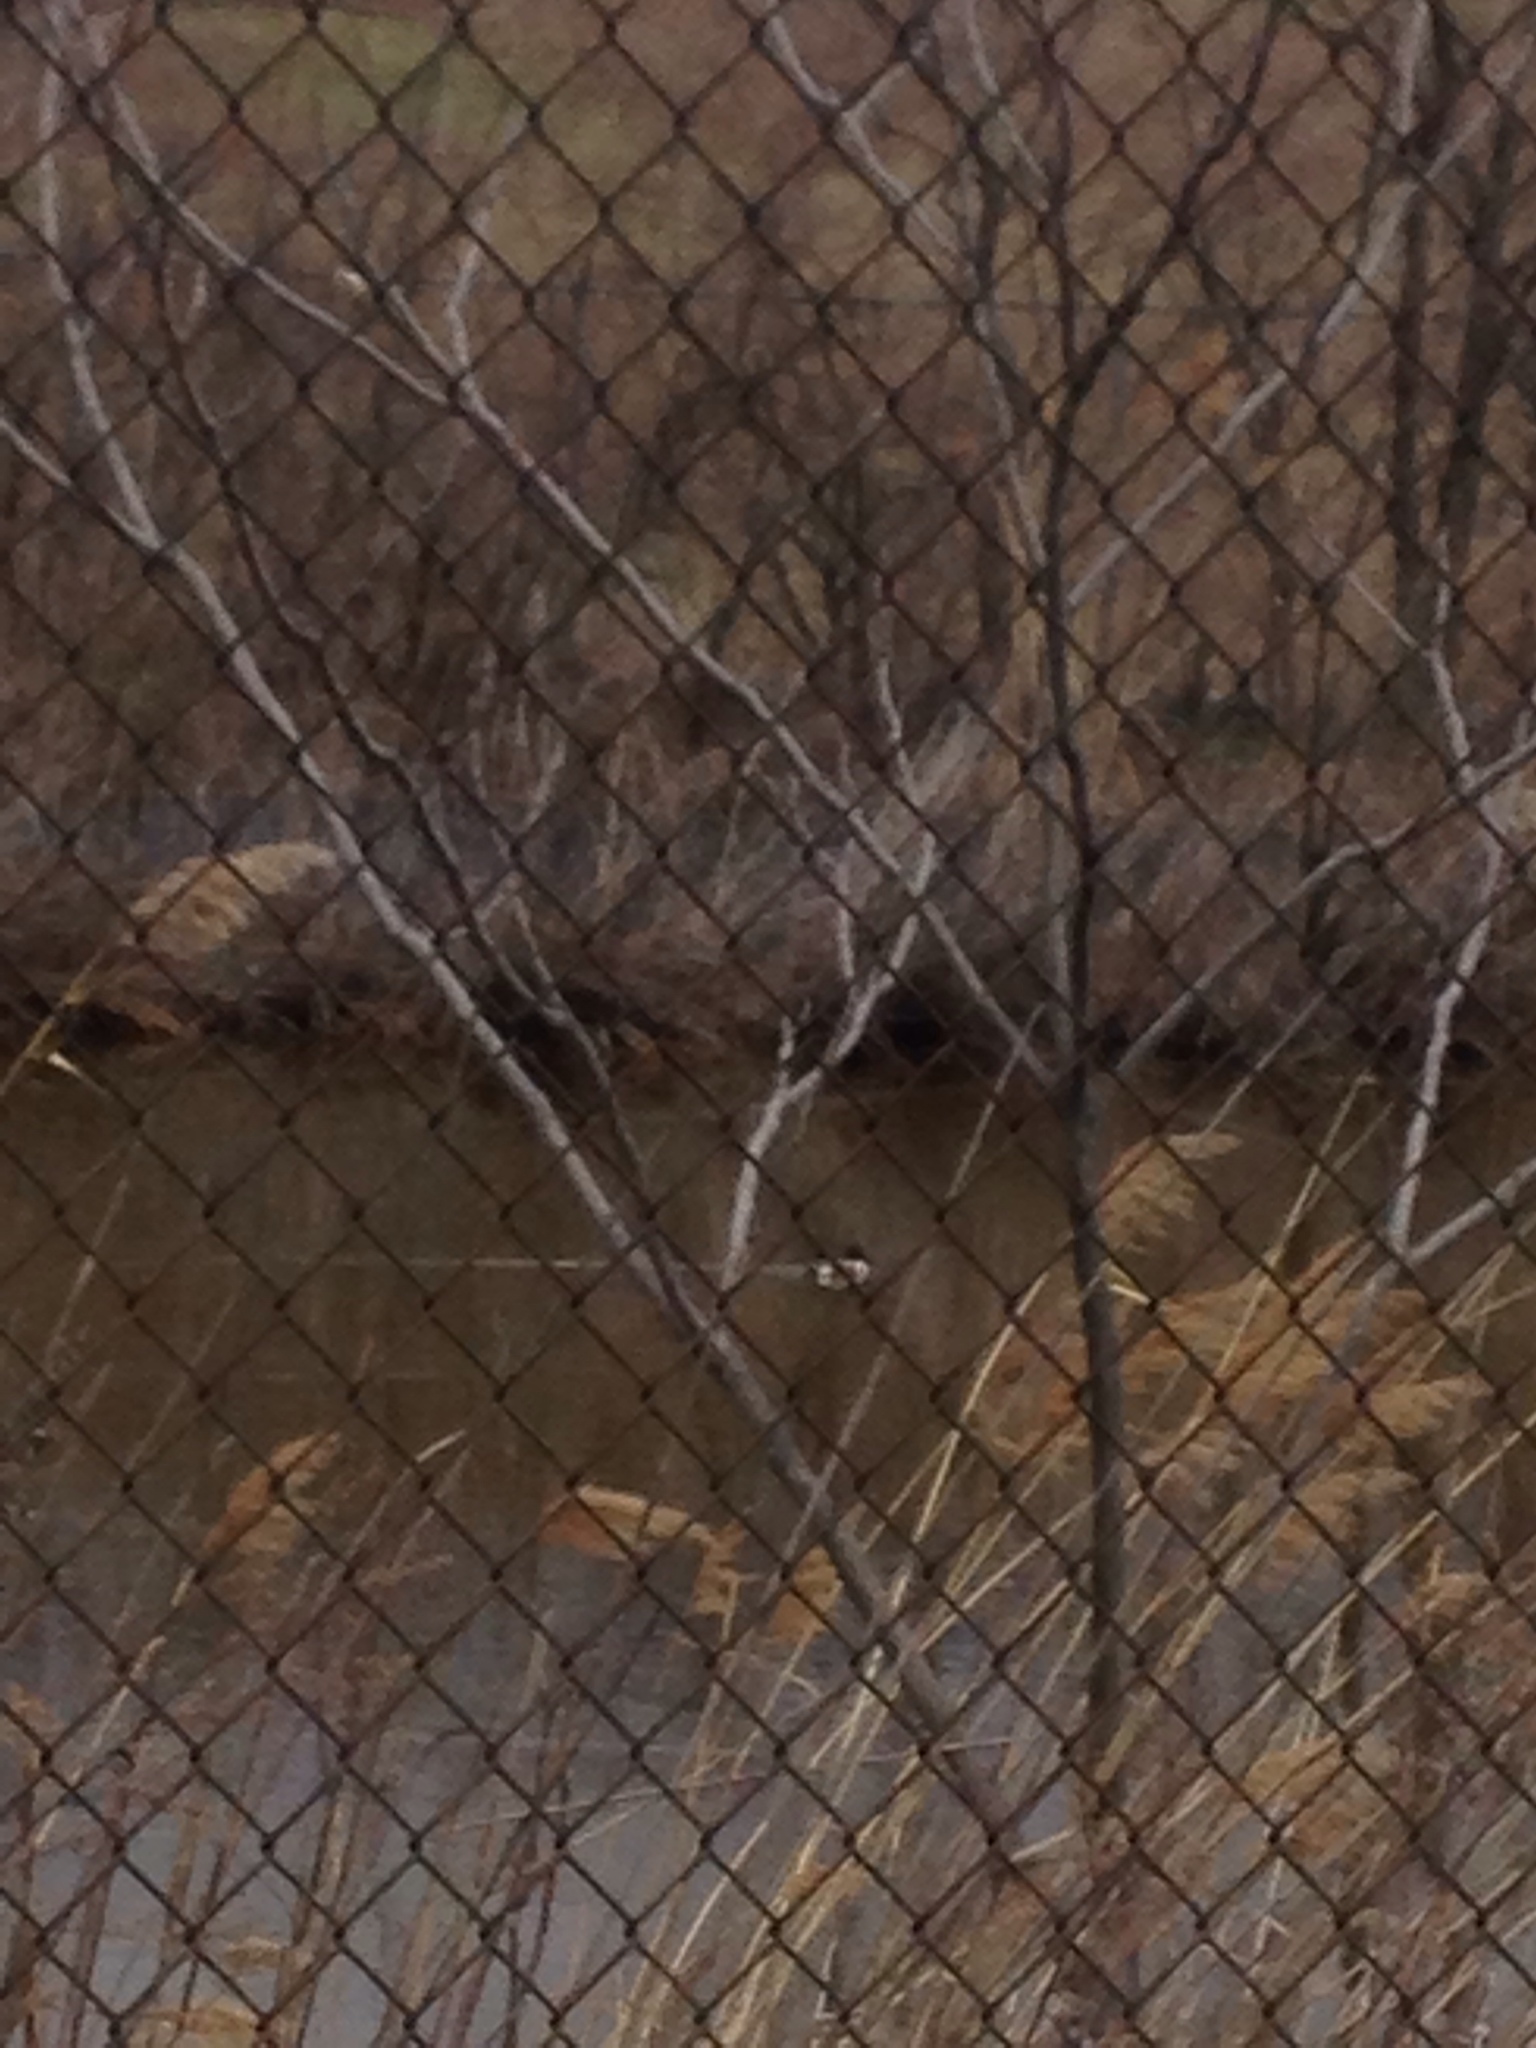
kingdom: Animalia
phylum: Chordata
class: Aves
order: Anseriformes
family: Anatidae
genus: Spatula
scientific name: Spatula clypeata
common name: Northern shoveler
